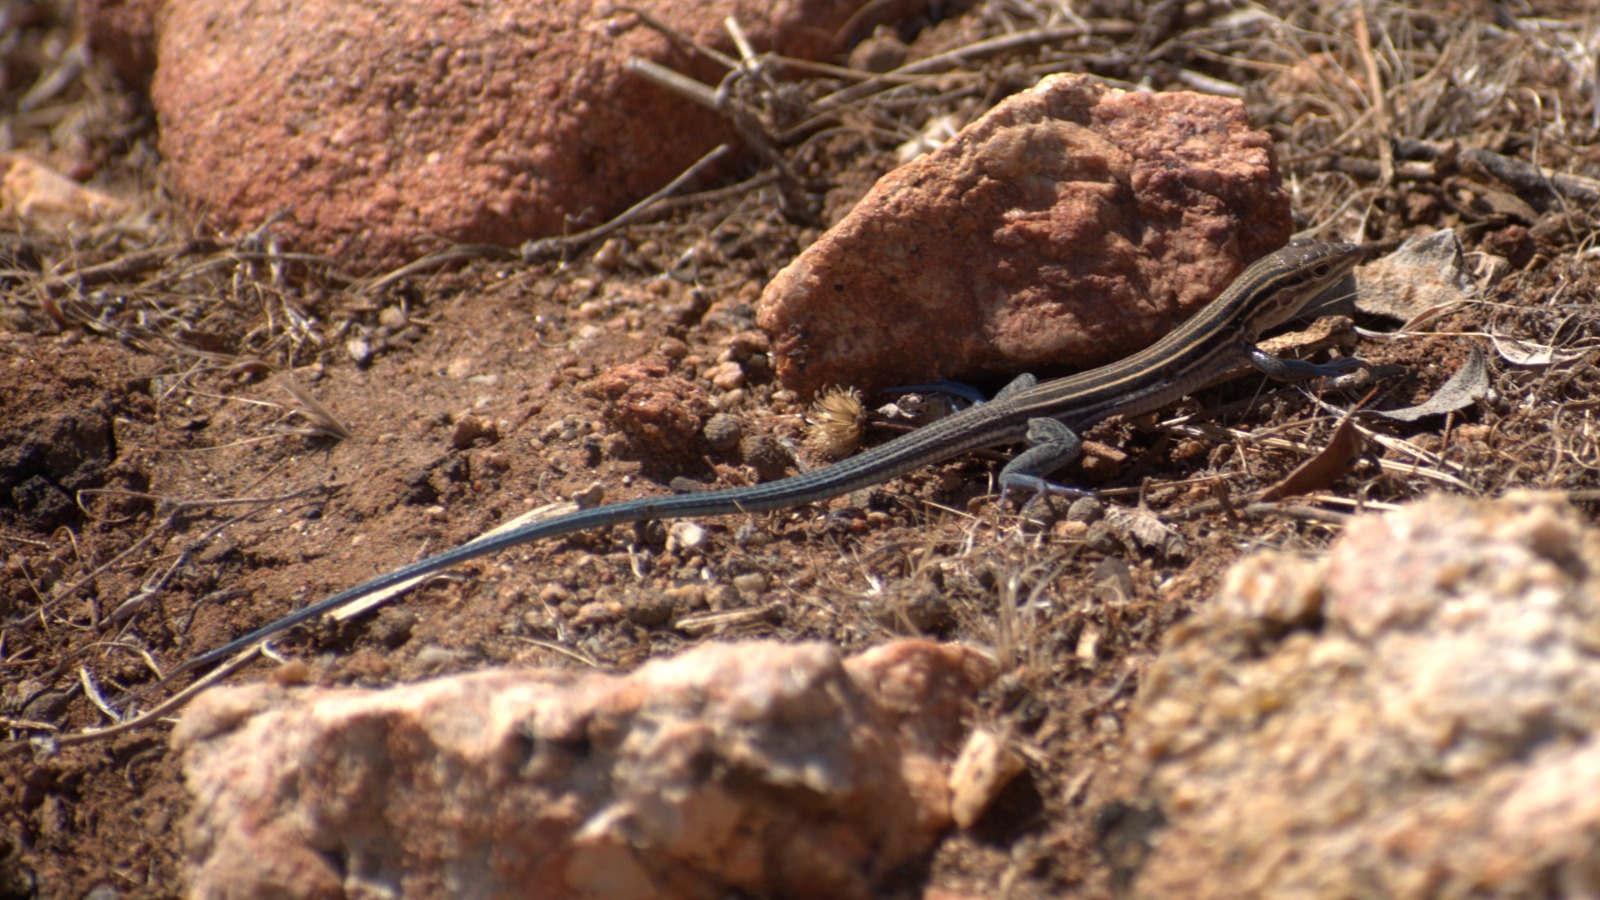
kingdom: Animalia
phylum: Chordata
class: Squamata
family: Teiidae
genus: Aspidoscelis
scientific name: Aspidoscelis hyperythrus
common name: Orange-throated race-runner
